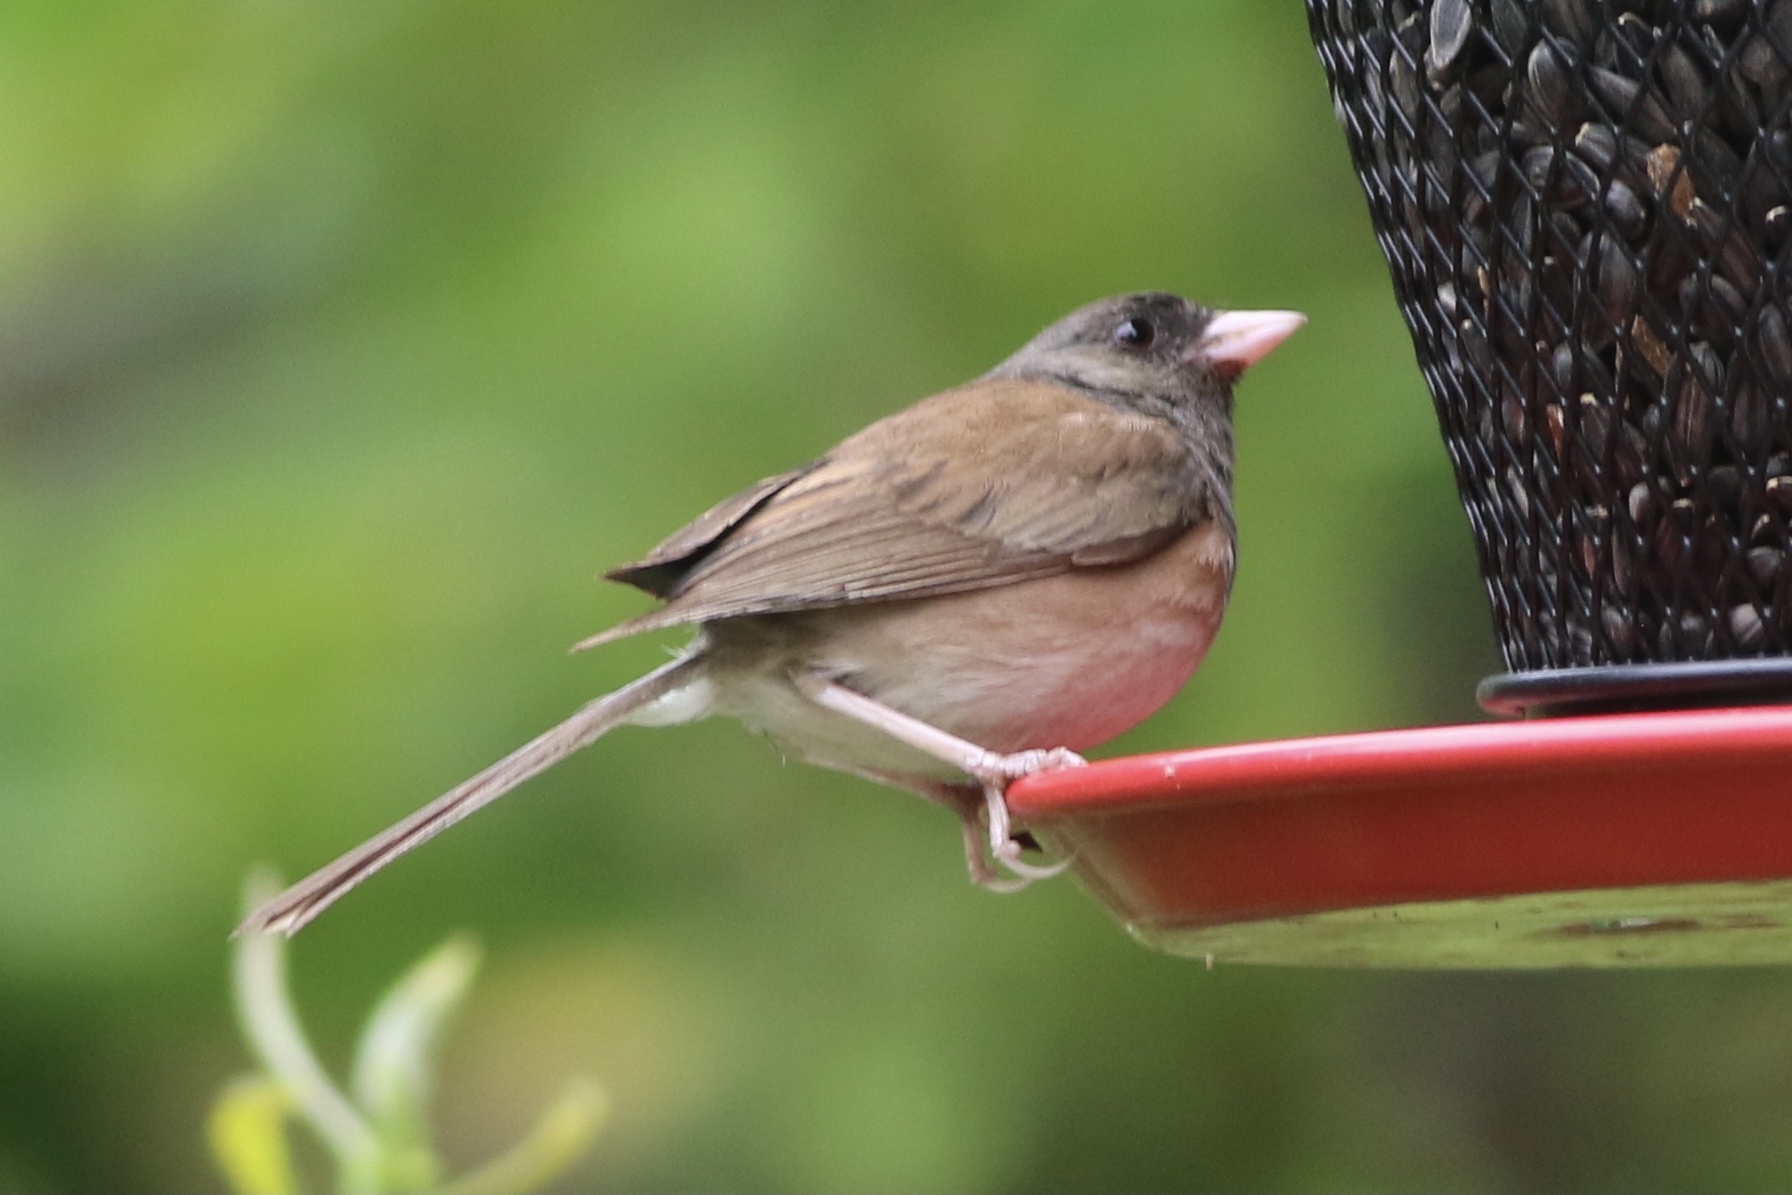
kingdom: Animalia
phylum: Chordata
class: Aves
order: Passeriformes
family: Passerellidae
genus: Junco
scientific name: Junco hyemalis
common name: Dark-eyed junco
